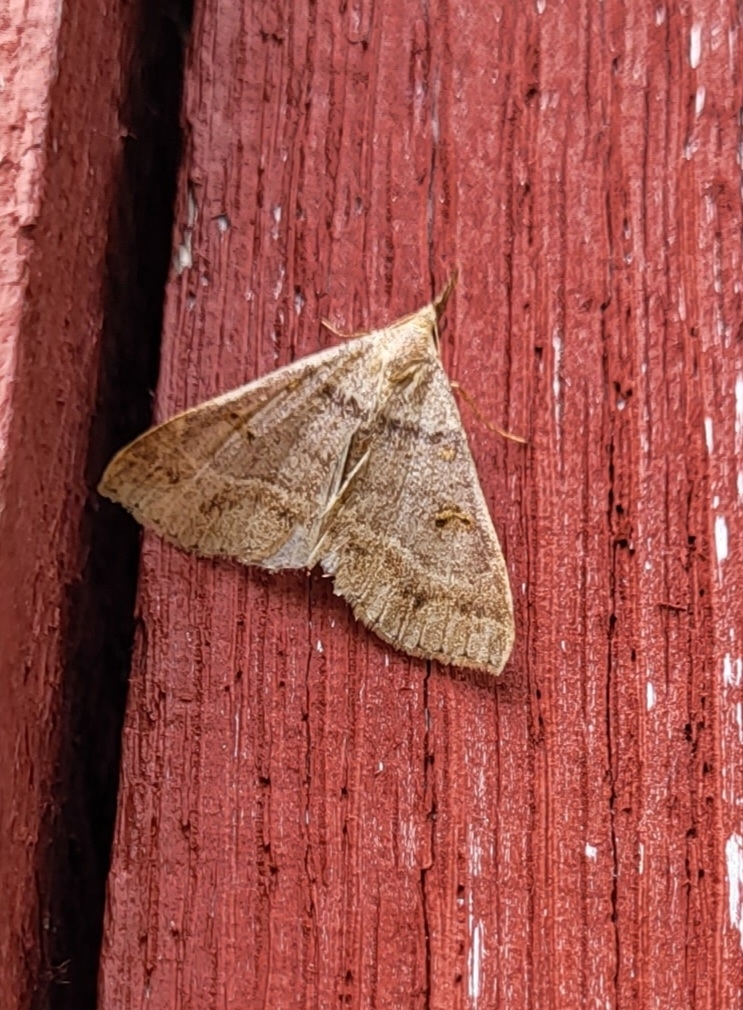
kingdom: Animalia
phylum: Arthropoda
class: Insecta
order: Lepidoptera
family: Erebidae
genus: Renia
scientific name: Renia flavipunctalis
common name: Yellow-spotted renia moth
